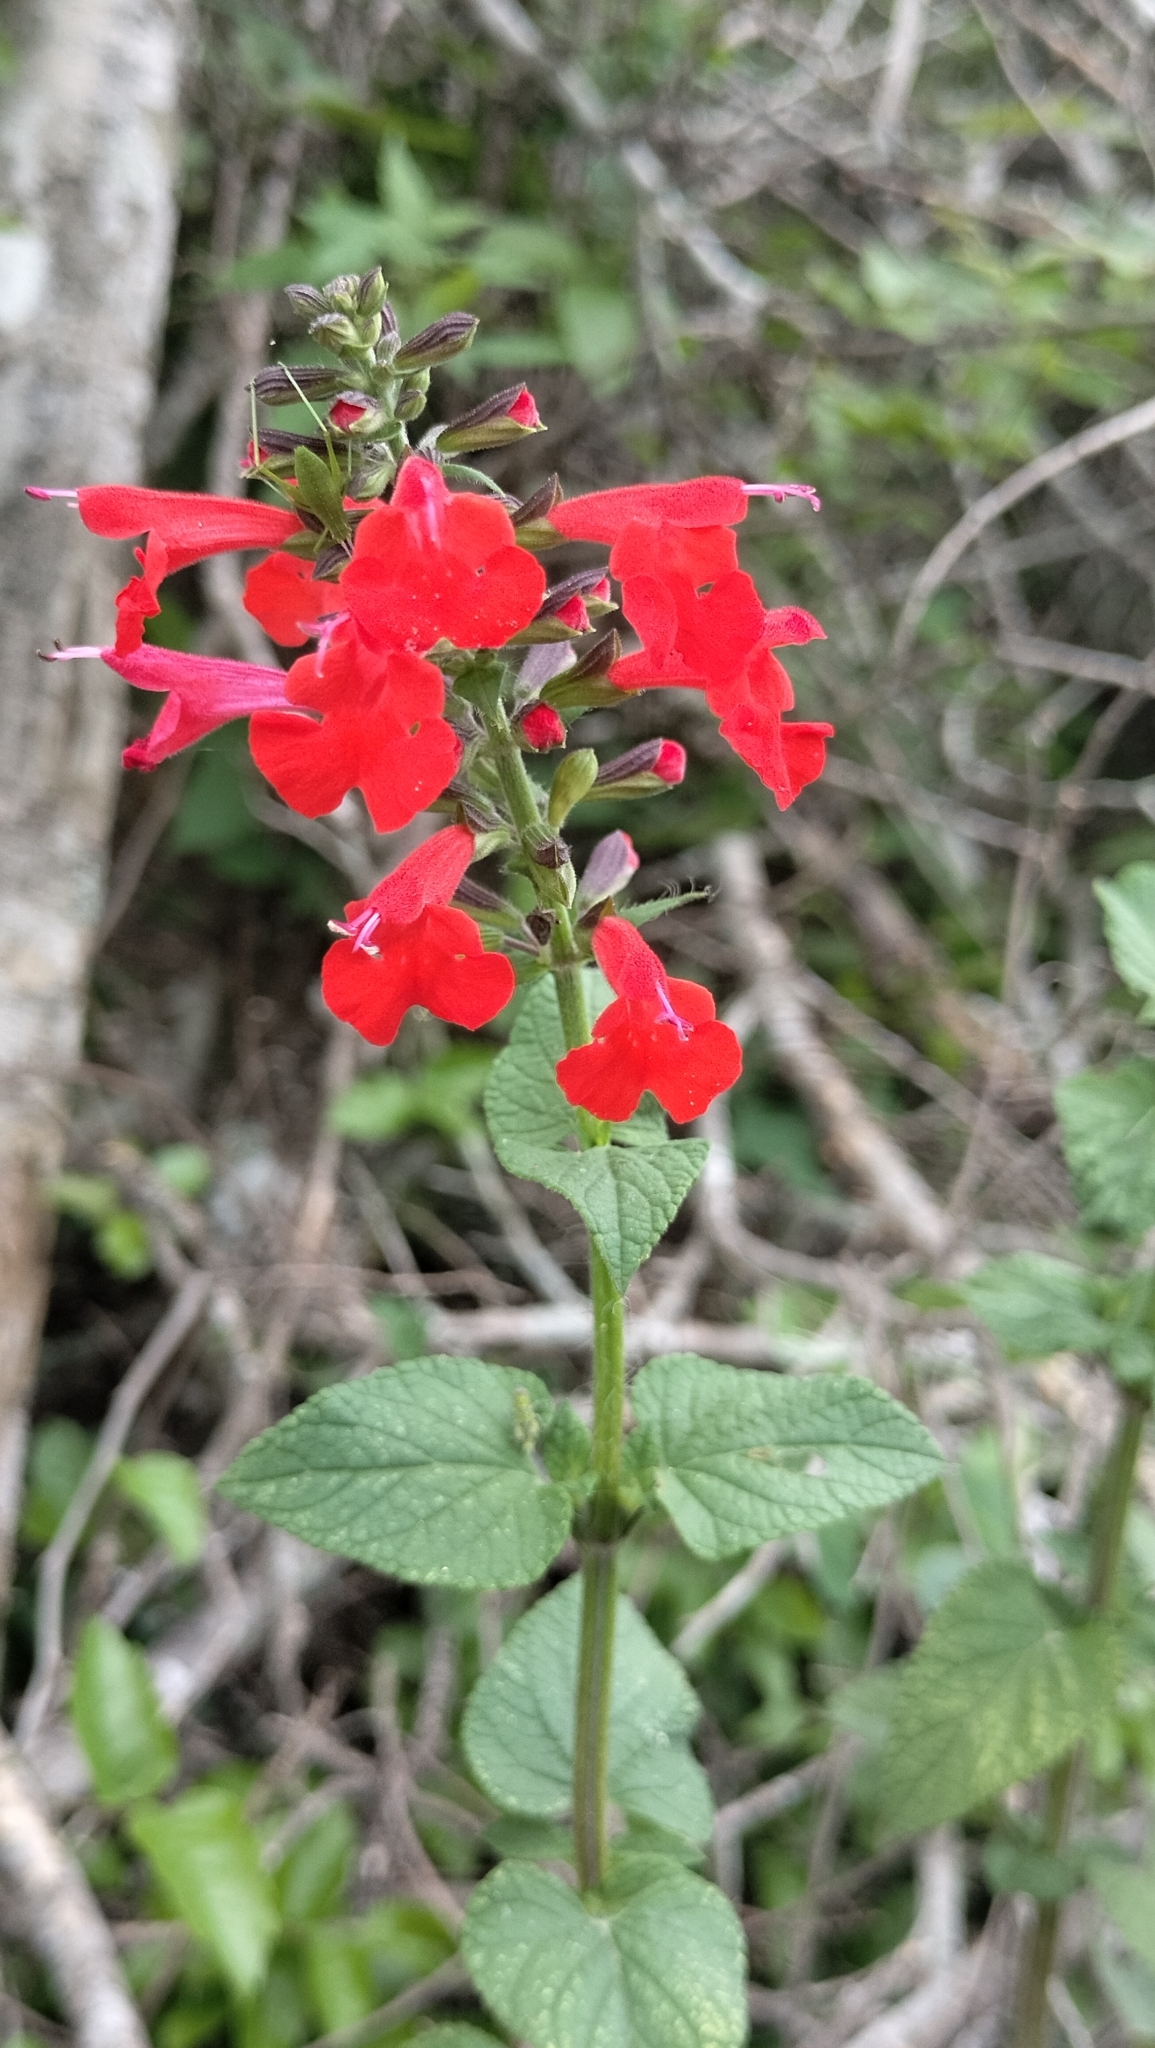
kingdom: Plantae
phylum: Tracheophyta
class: Magnoliopsida
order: Lamiales
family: Lamiaceae
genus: Salvia
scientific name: Salvia coccinea
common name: Blood sage
